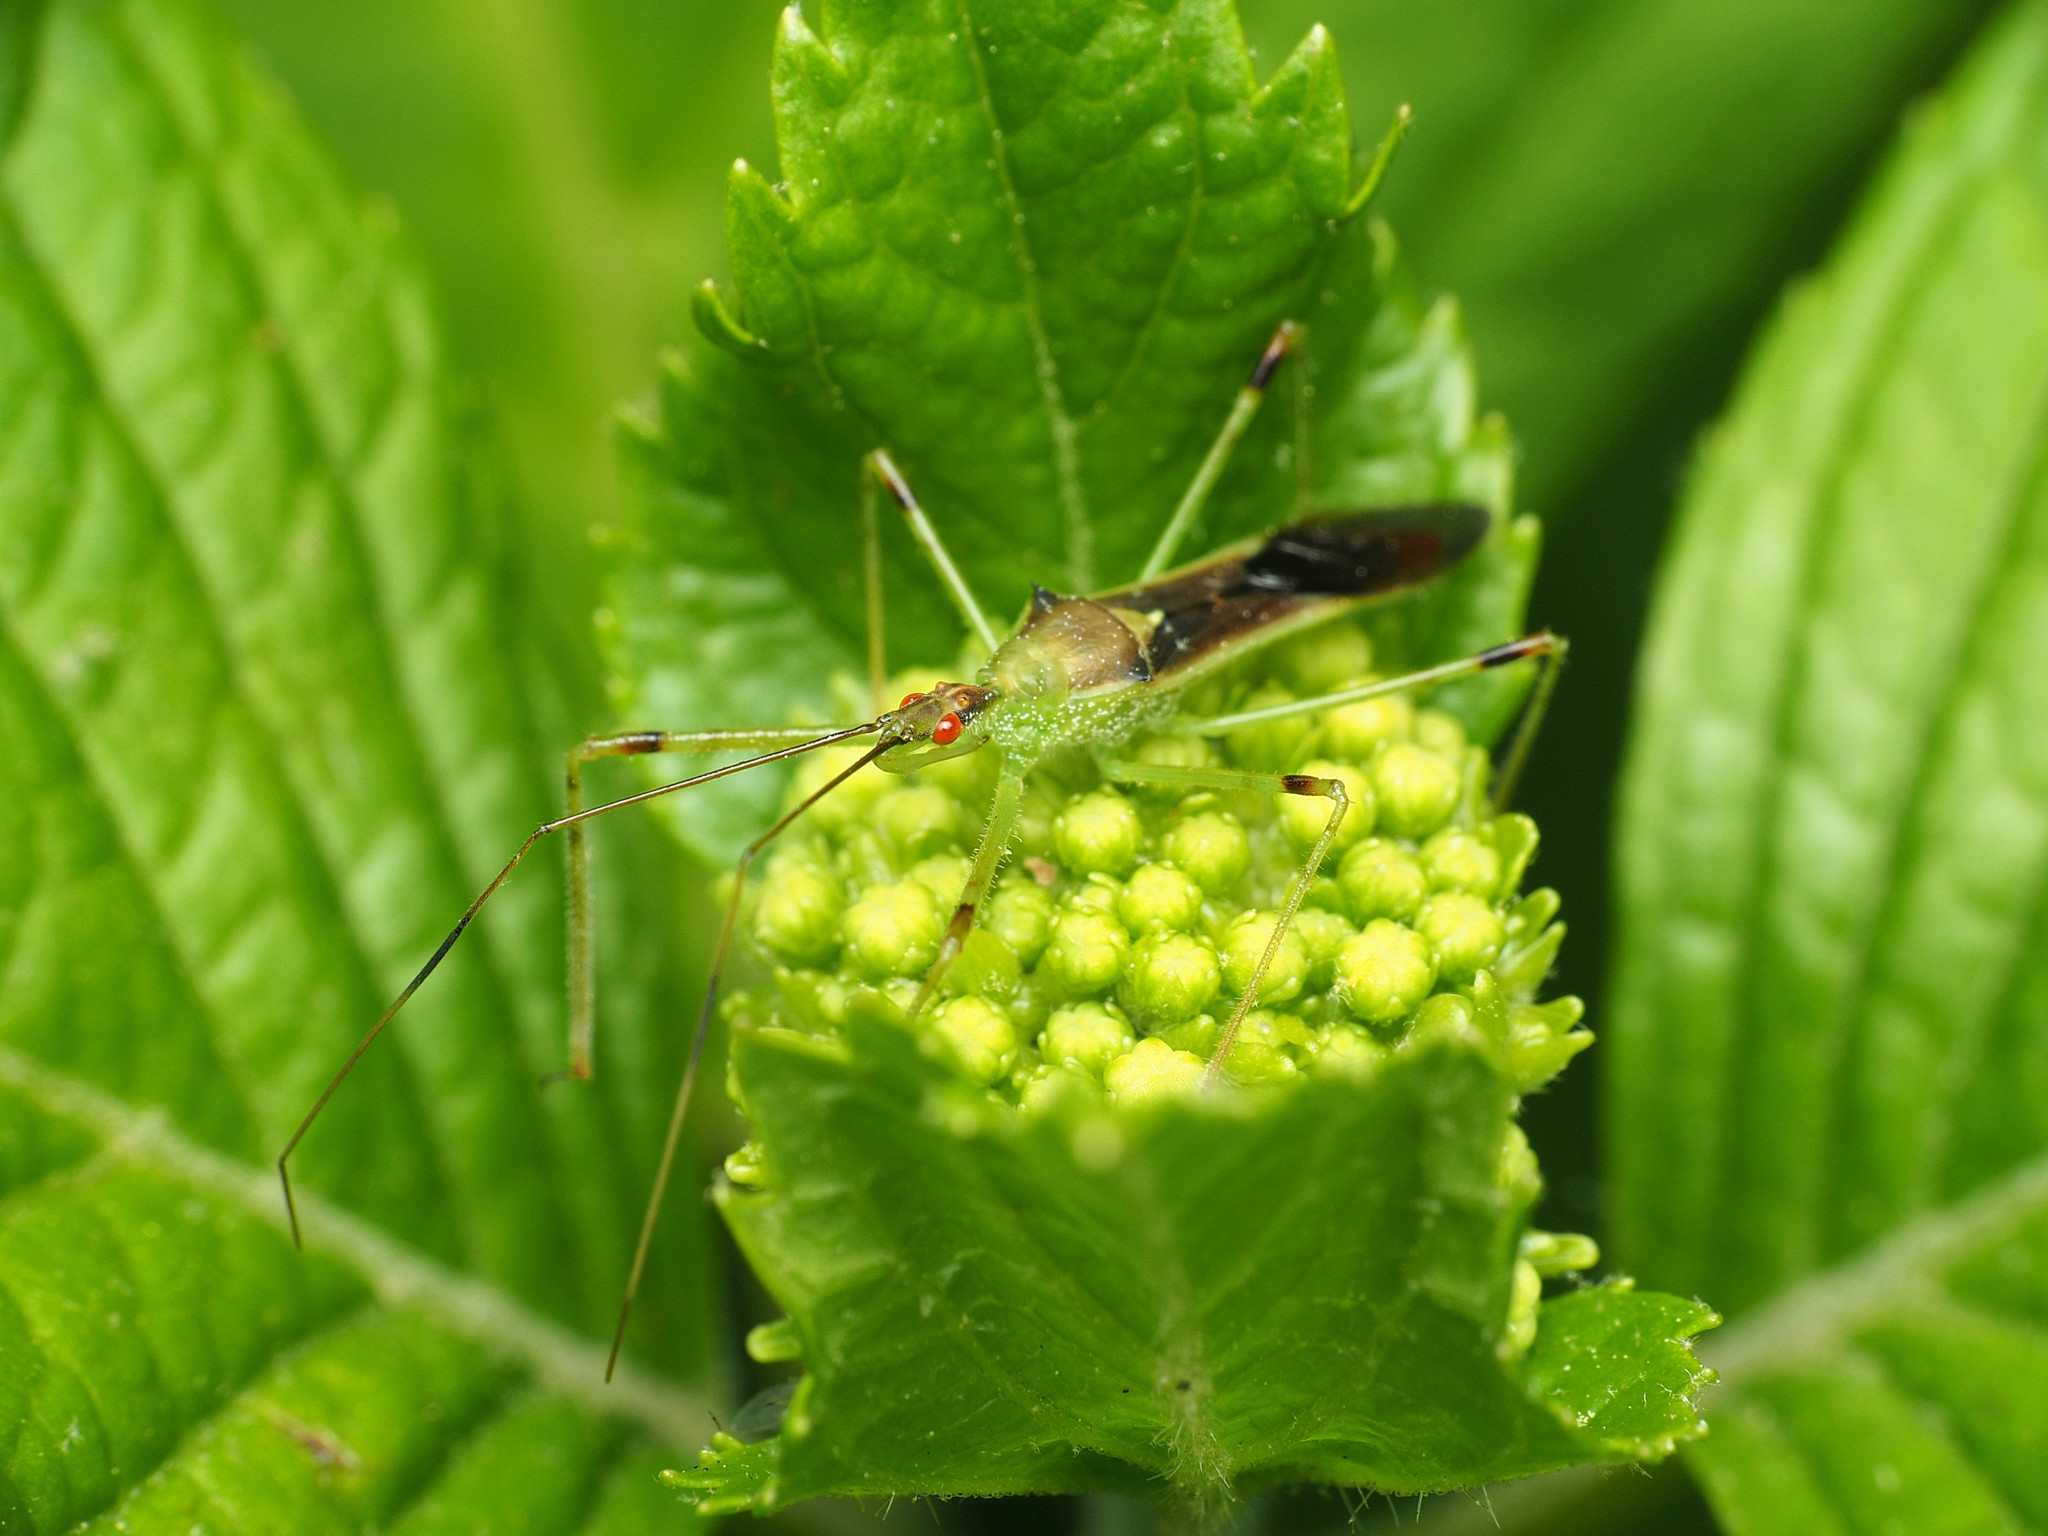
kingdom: Animalia
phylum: Arthropoda
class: Insecta
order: Hemiptera
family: Reduviidae
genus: Zelus
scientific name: Zelus luridus
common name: Pale green assassin bug
